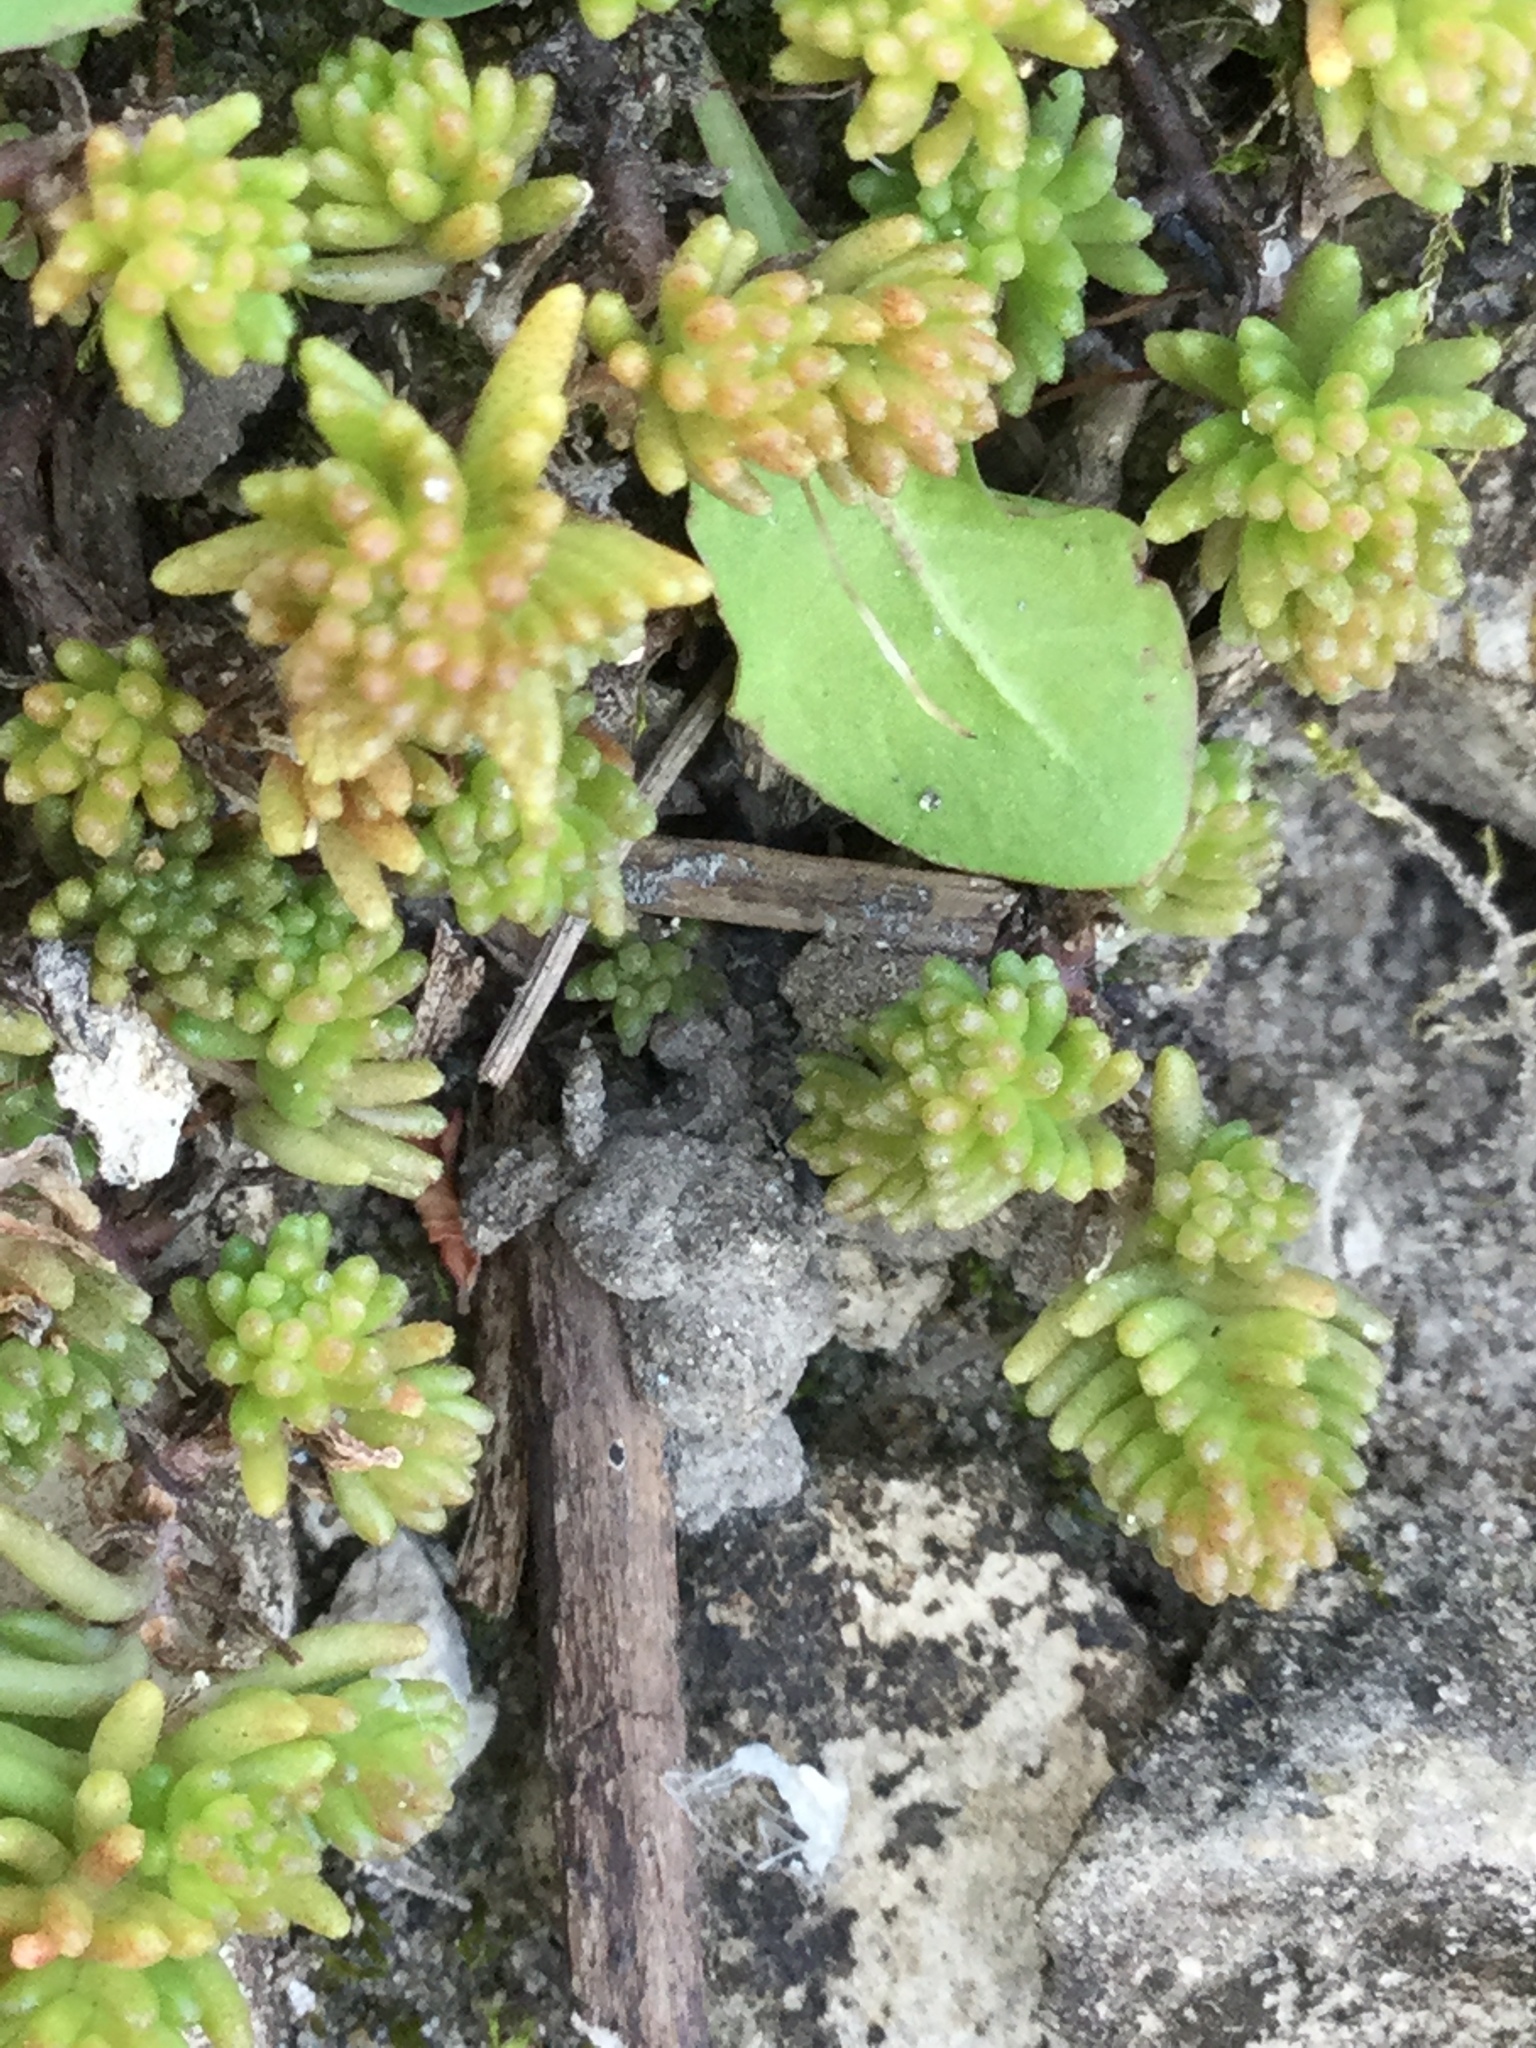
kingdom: Plantae
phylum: Tracheophyta
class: Magnoliopsida
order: Saxifragales
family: Crassulaceae
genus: Sedum
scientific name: Sedum sexangulare
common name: Tasteless stonecrop
